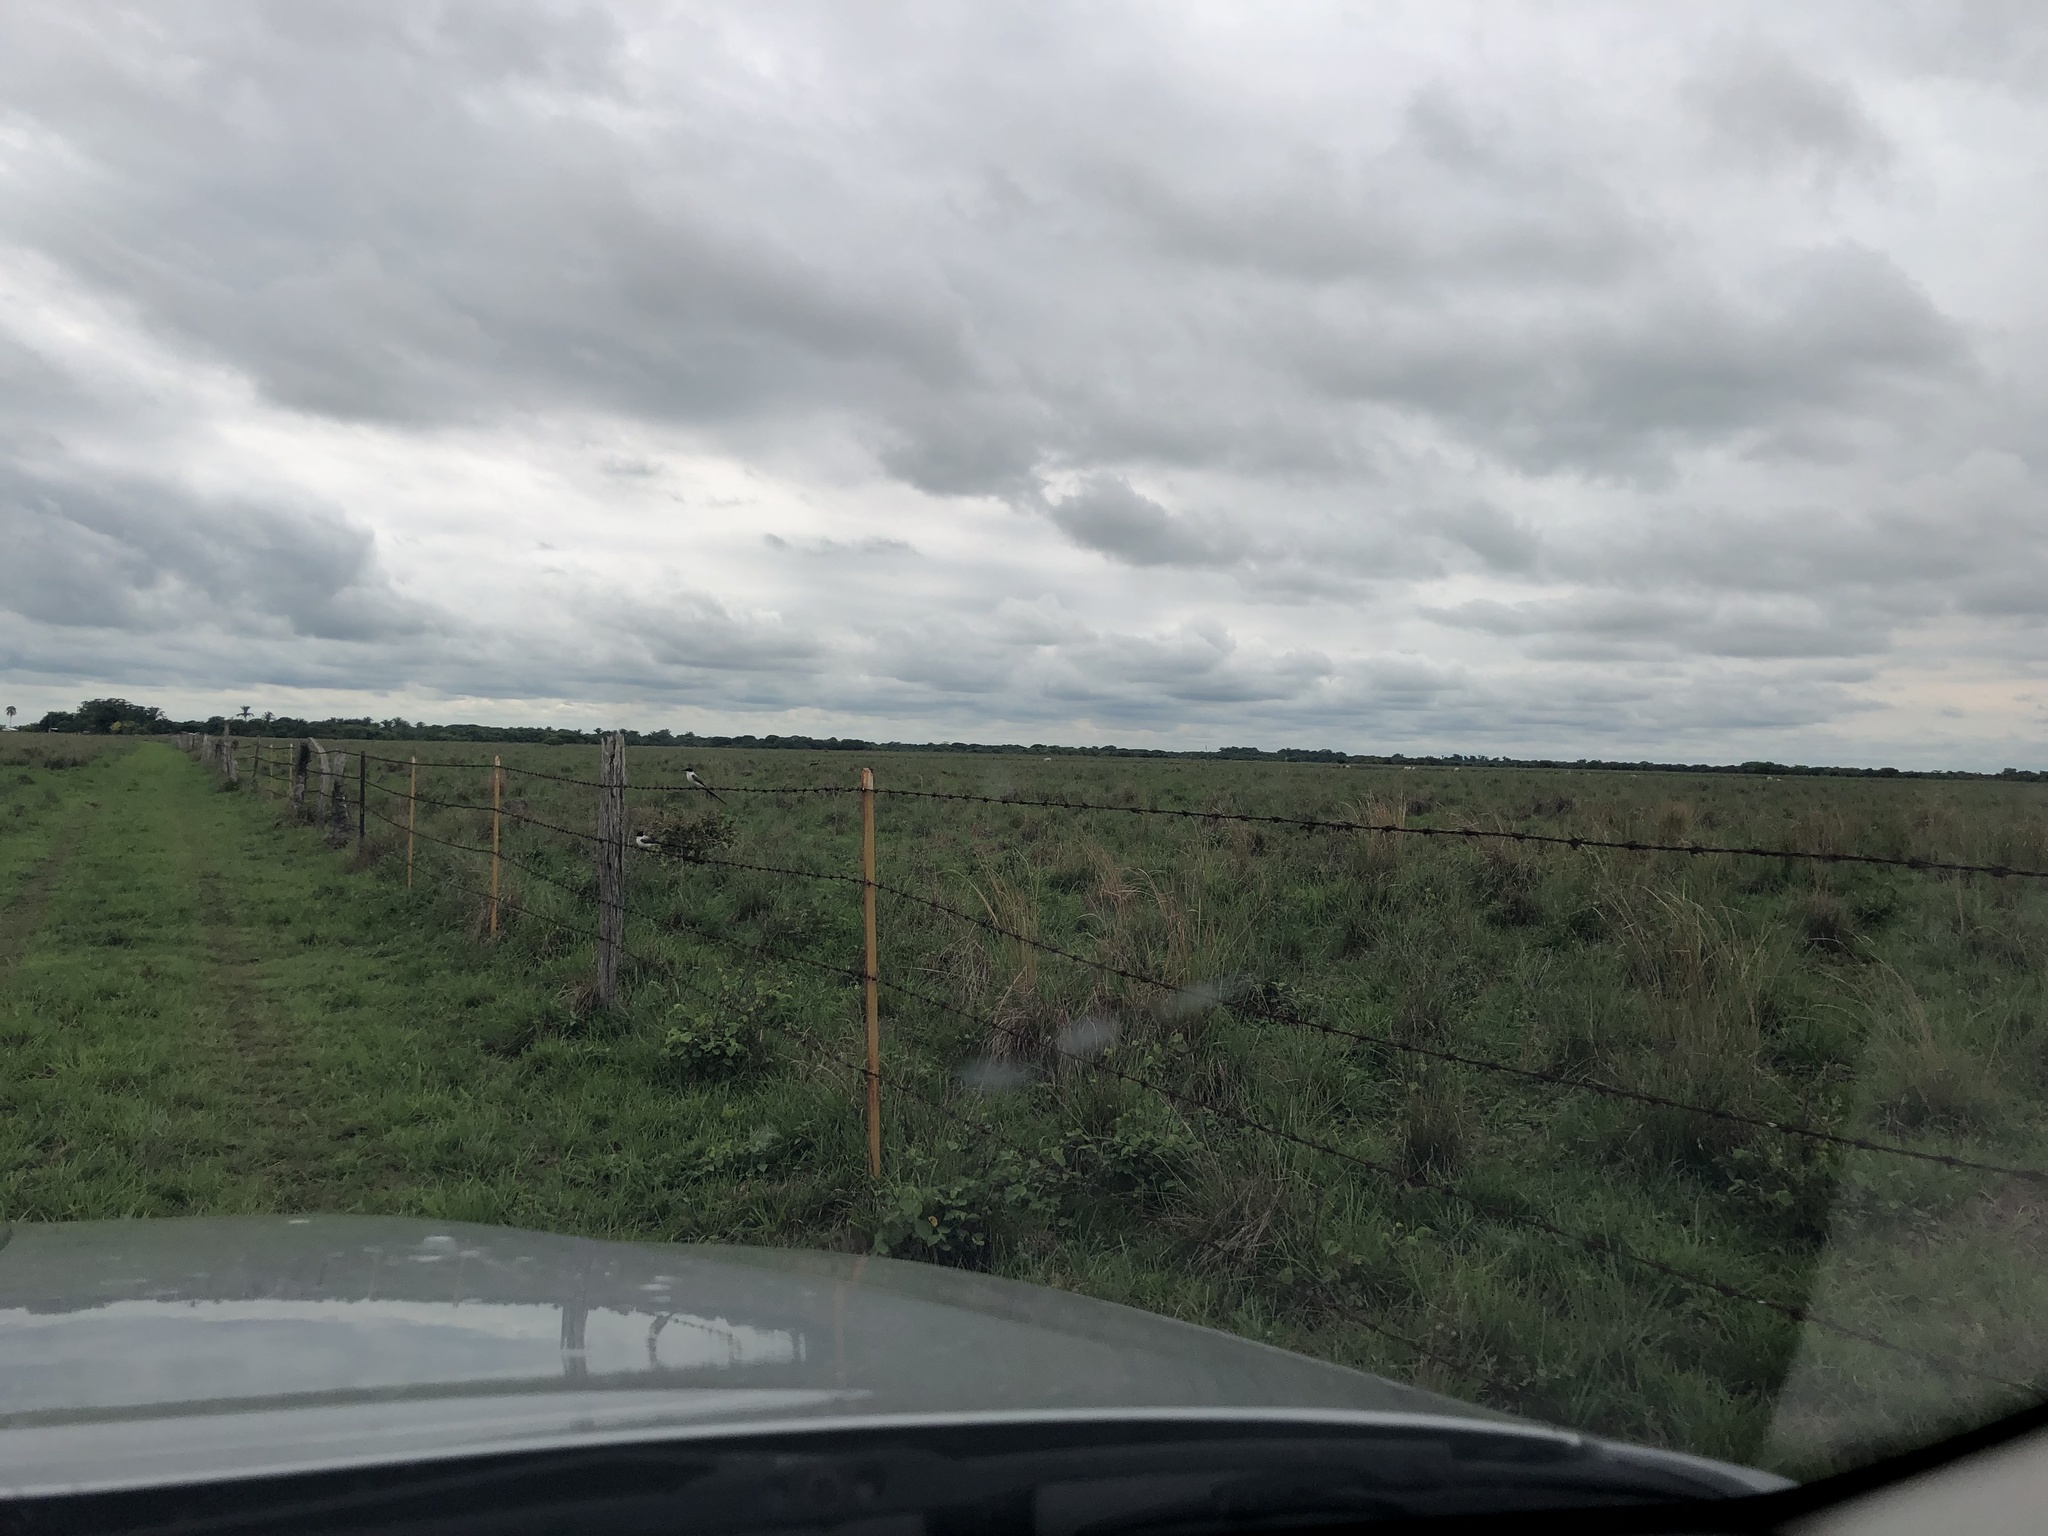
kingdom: Animalia
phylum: Chordata
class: Aves
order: Passeriformes
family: Tyrannidae
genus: Tyrannus
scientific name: Tyrannus savana
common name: Fork-tailed flycatcher
